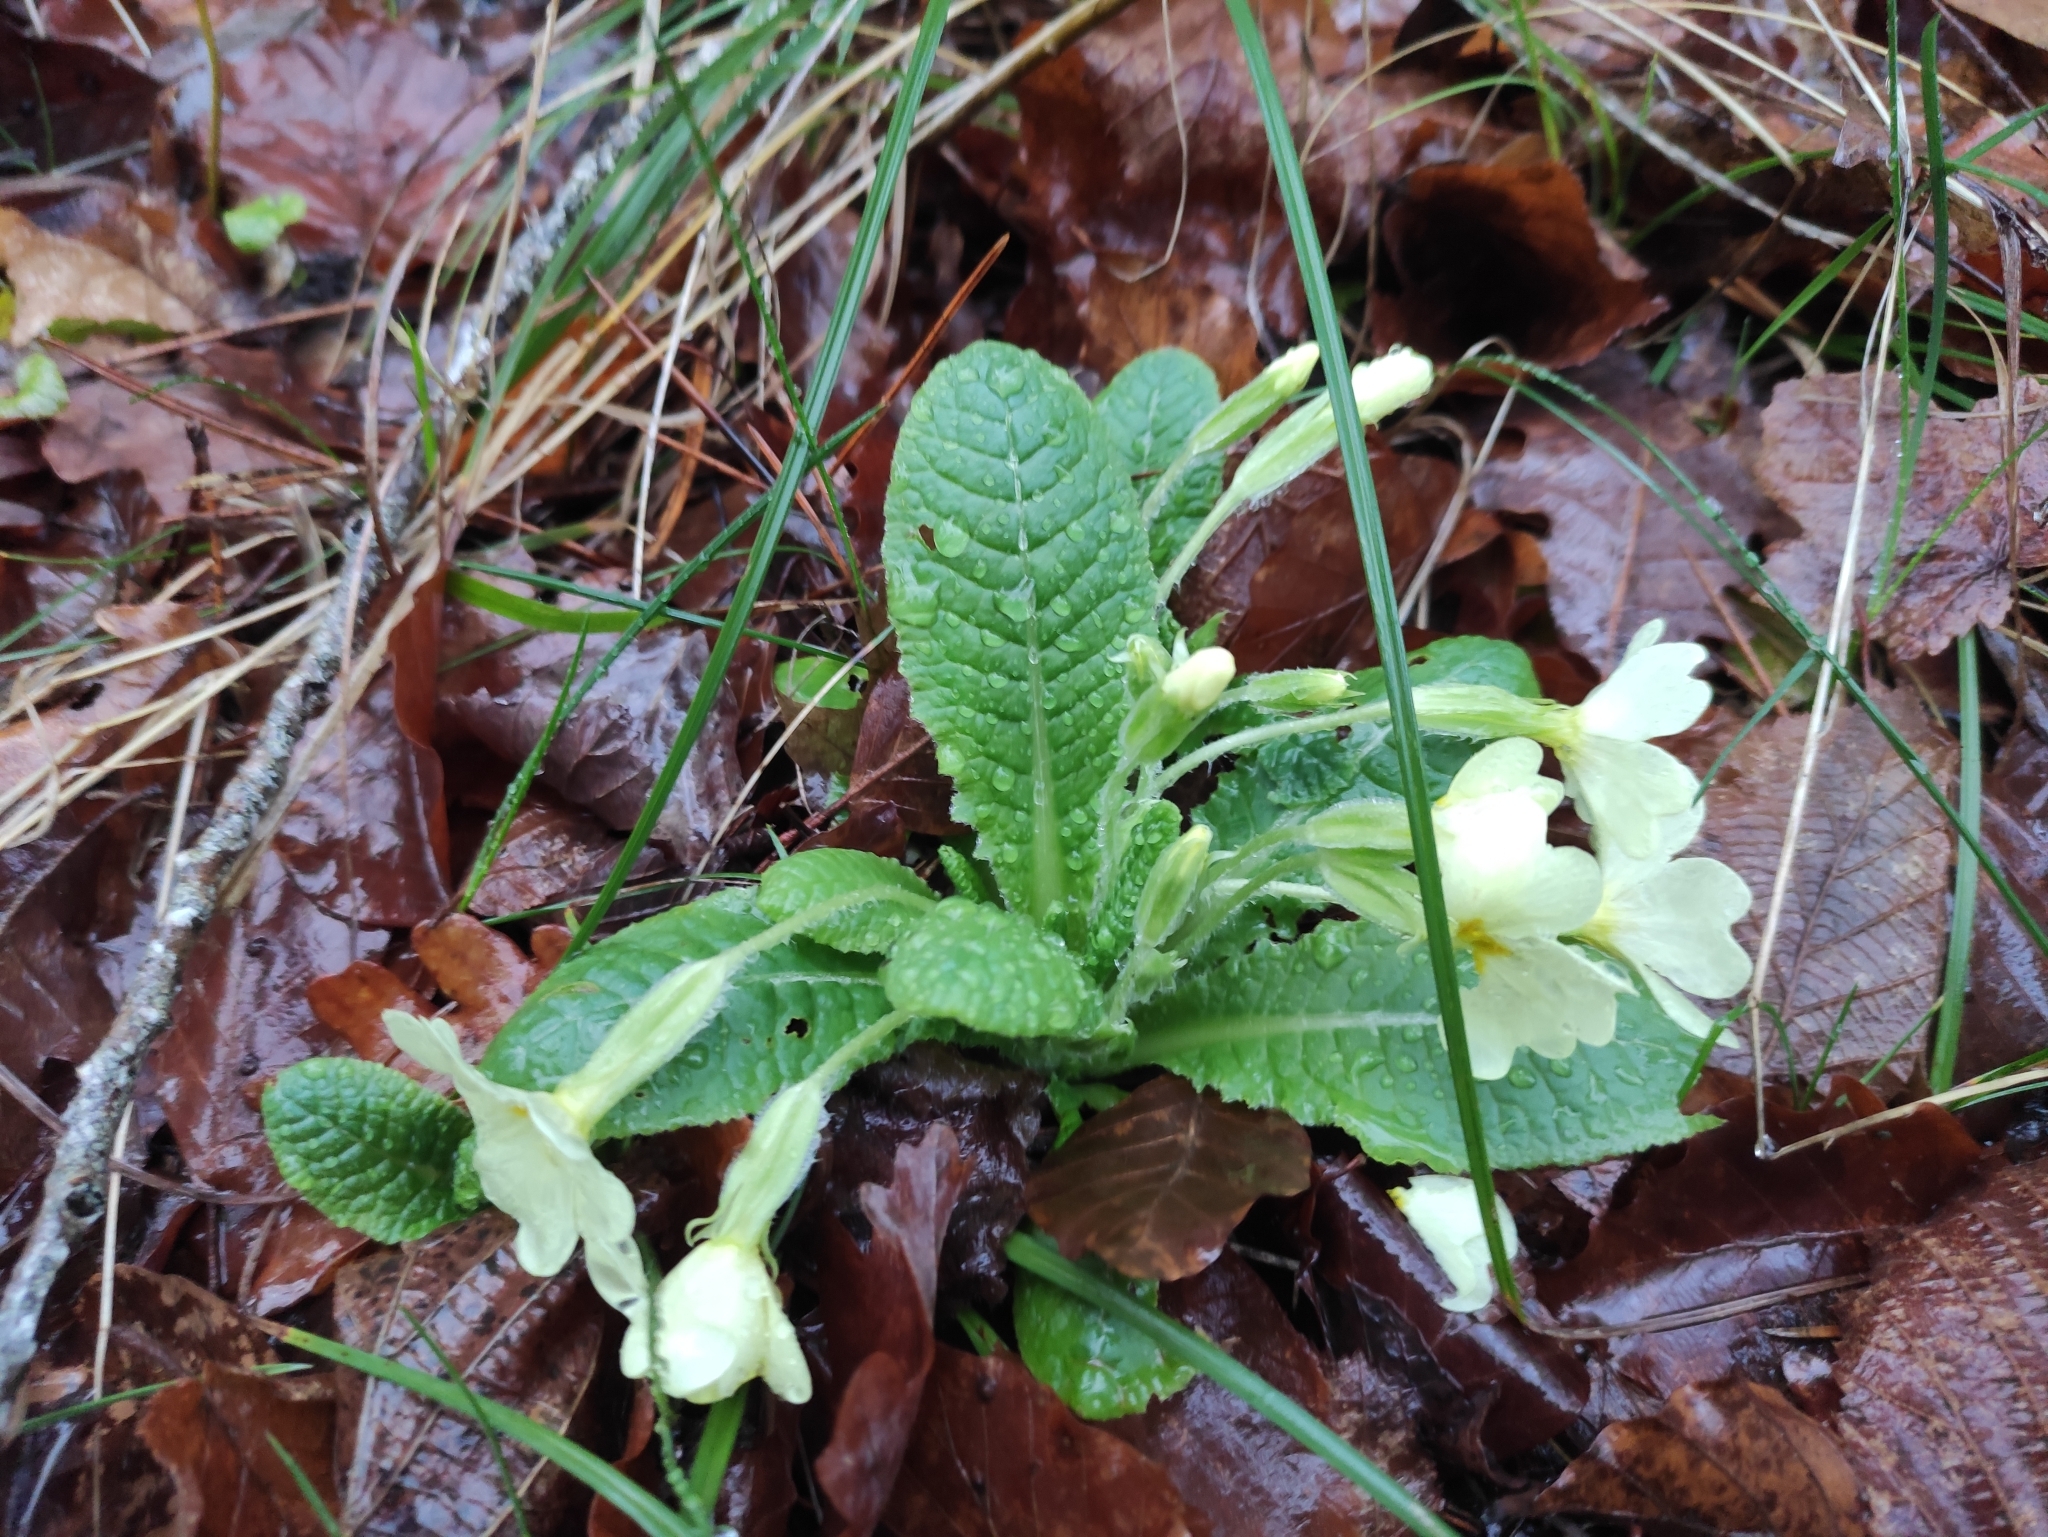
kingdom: Plantae
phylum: Tracheophyta
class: Magnoliopsida
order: Ericales
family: Primulaceae
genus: Primula
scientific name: Primula vulgaris
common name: Primrose
